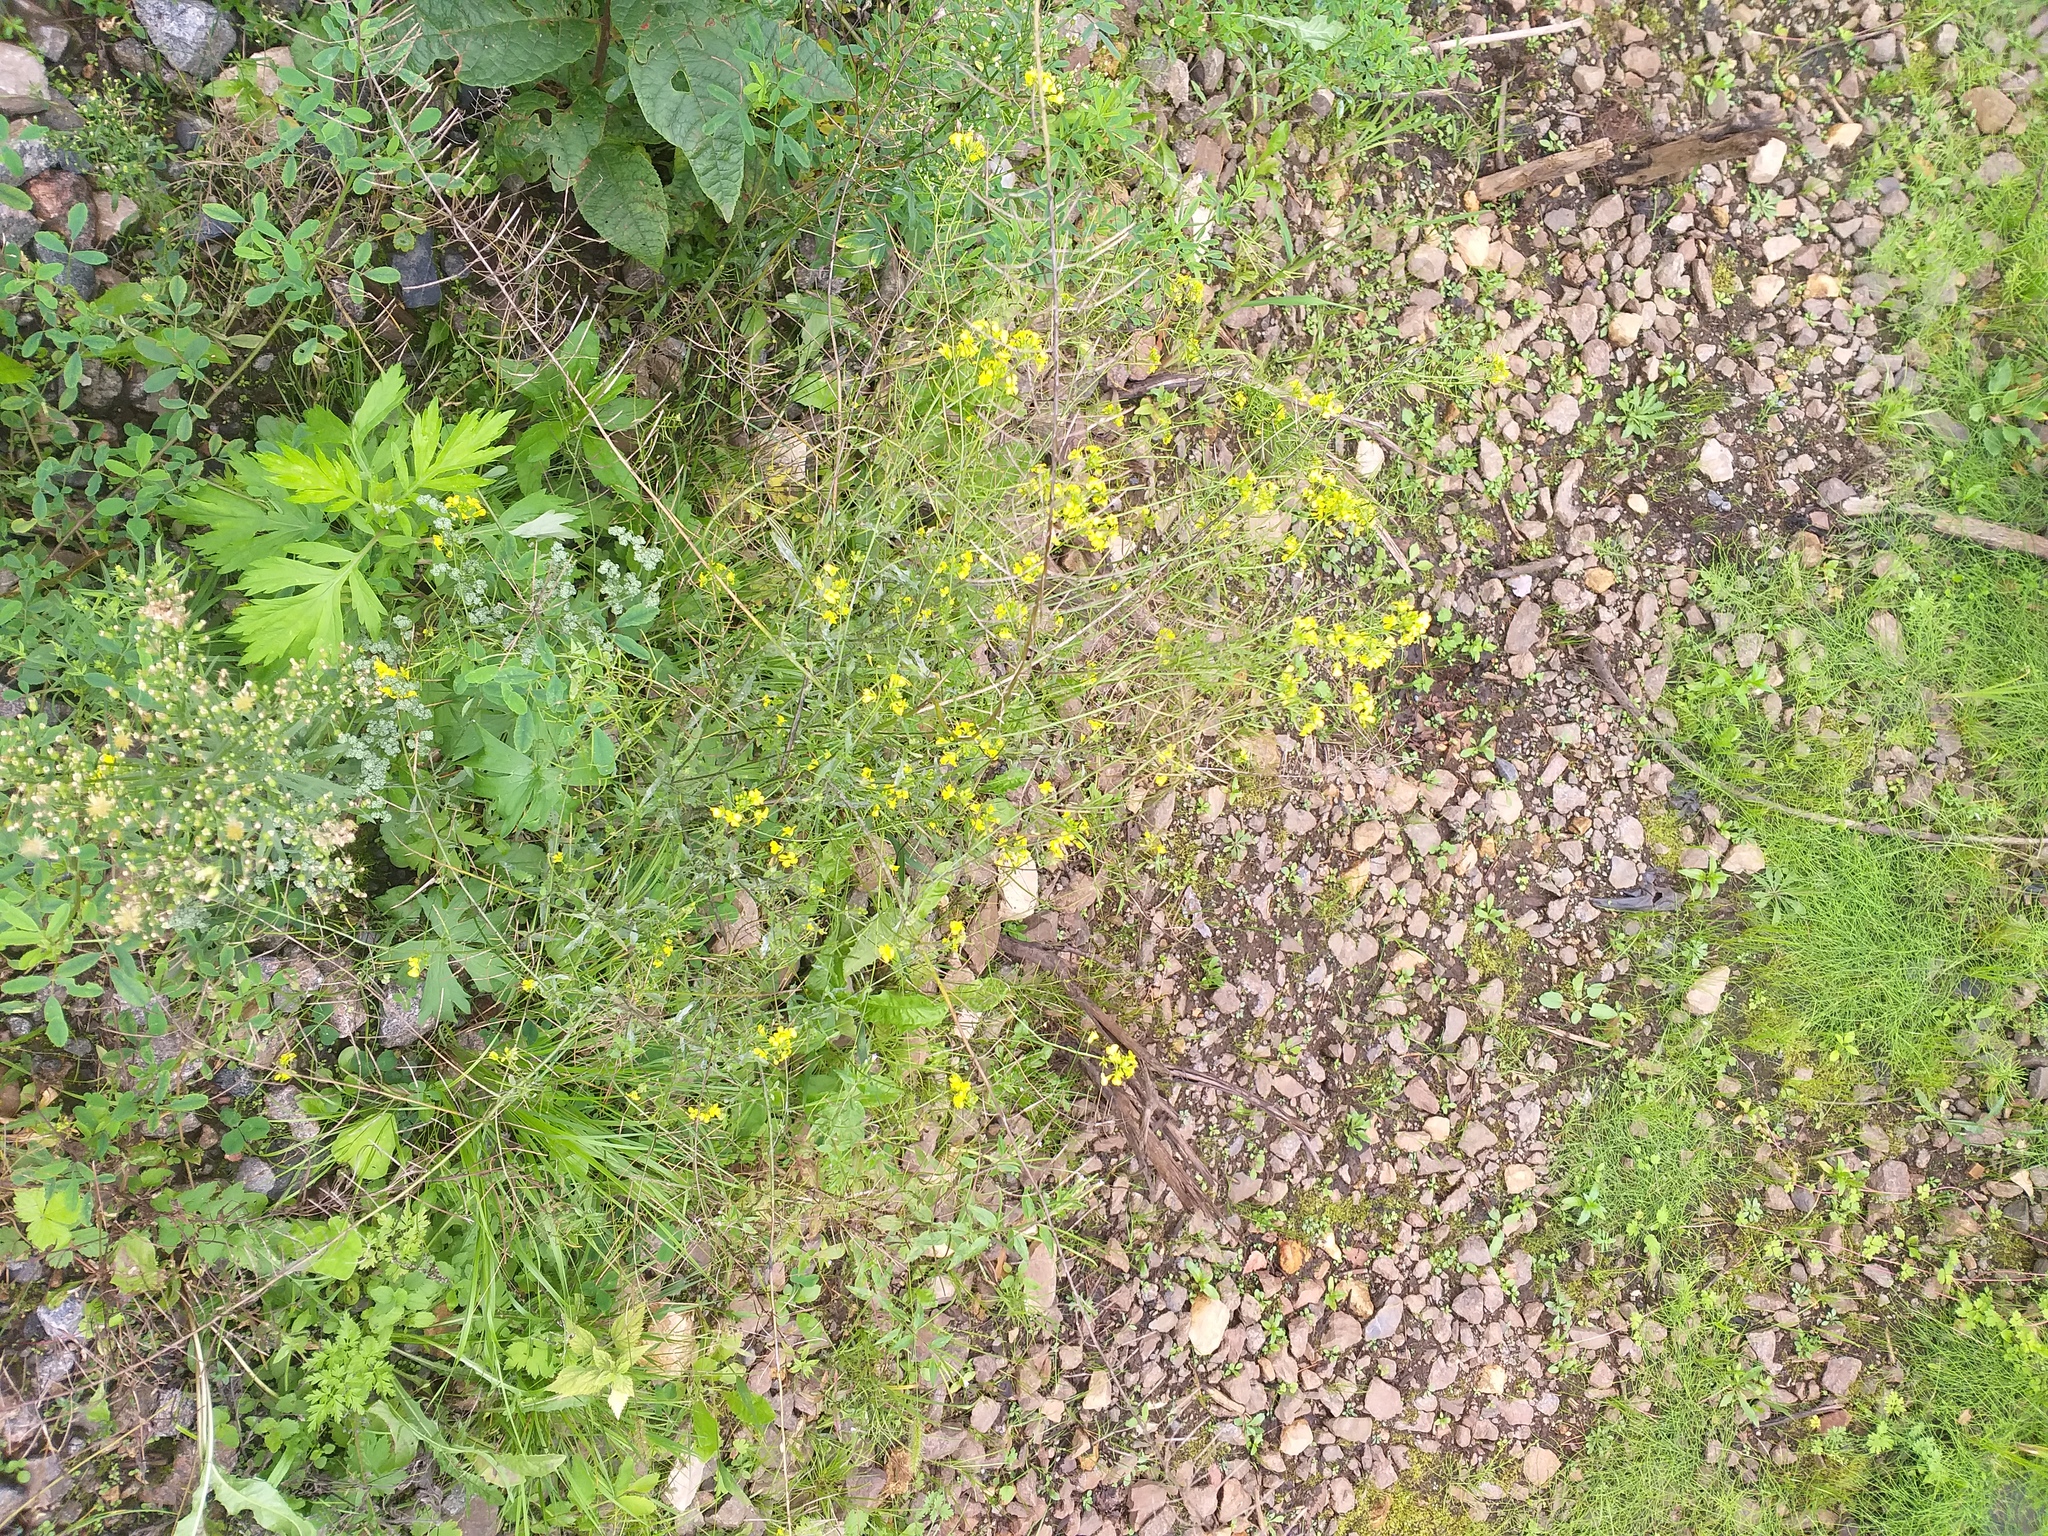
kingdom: Plantae
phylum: Tracheophyta
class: Magnoliopsida
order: Brassicales
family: Brassicaceae
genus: Sisymbrium
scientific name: Sisymbrium loeselii
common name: False london-rocket
